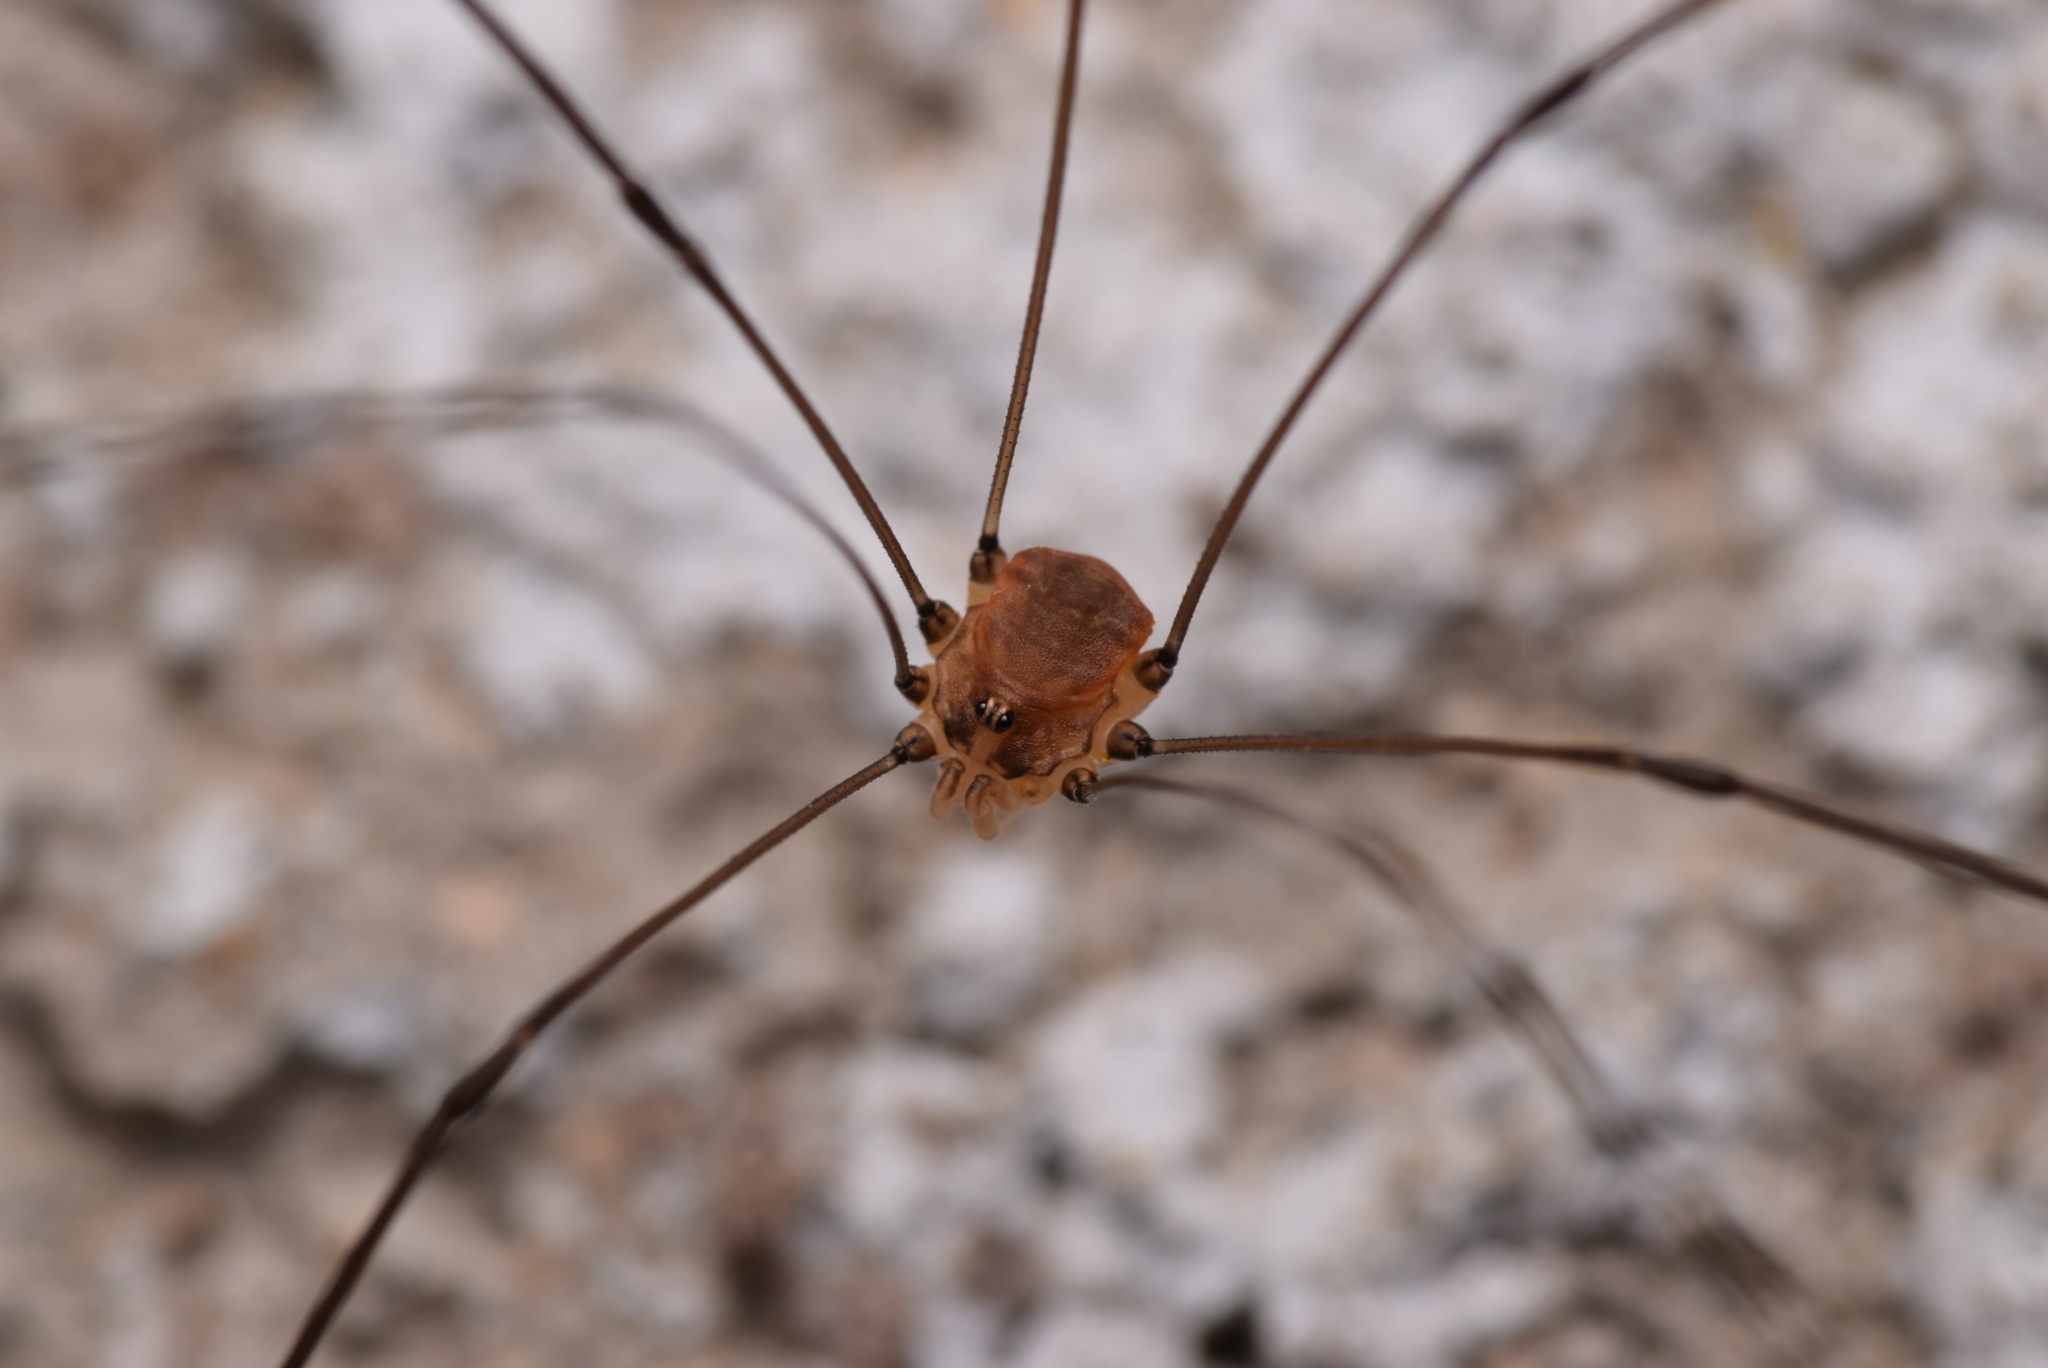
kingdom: Animalia
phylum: Arthropoda
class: Arachnida
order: Opiliones
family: Sclerosomatidae
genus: Leiobunum
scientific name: Leiobunum blackwalli
